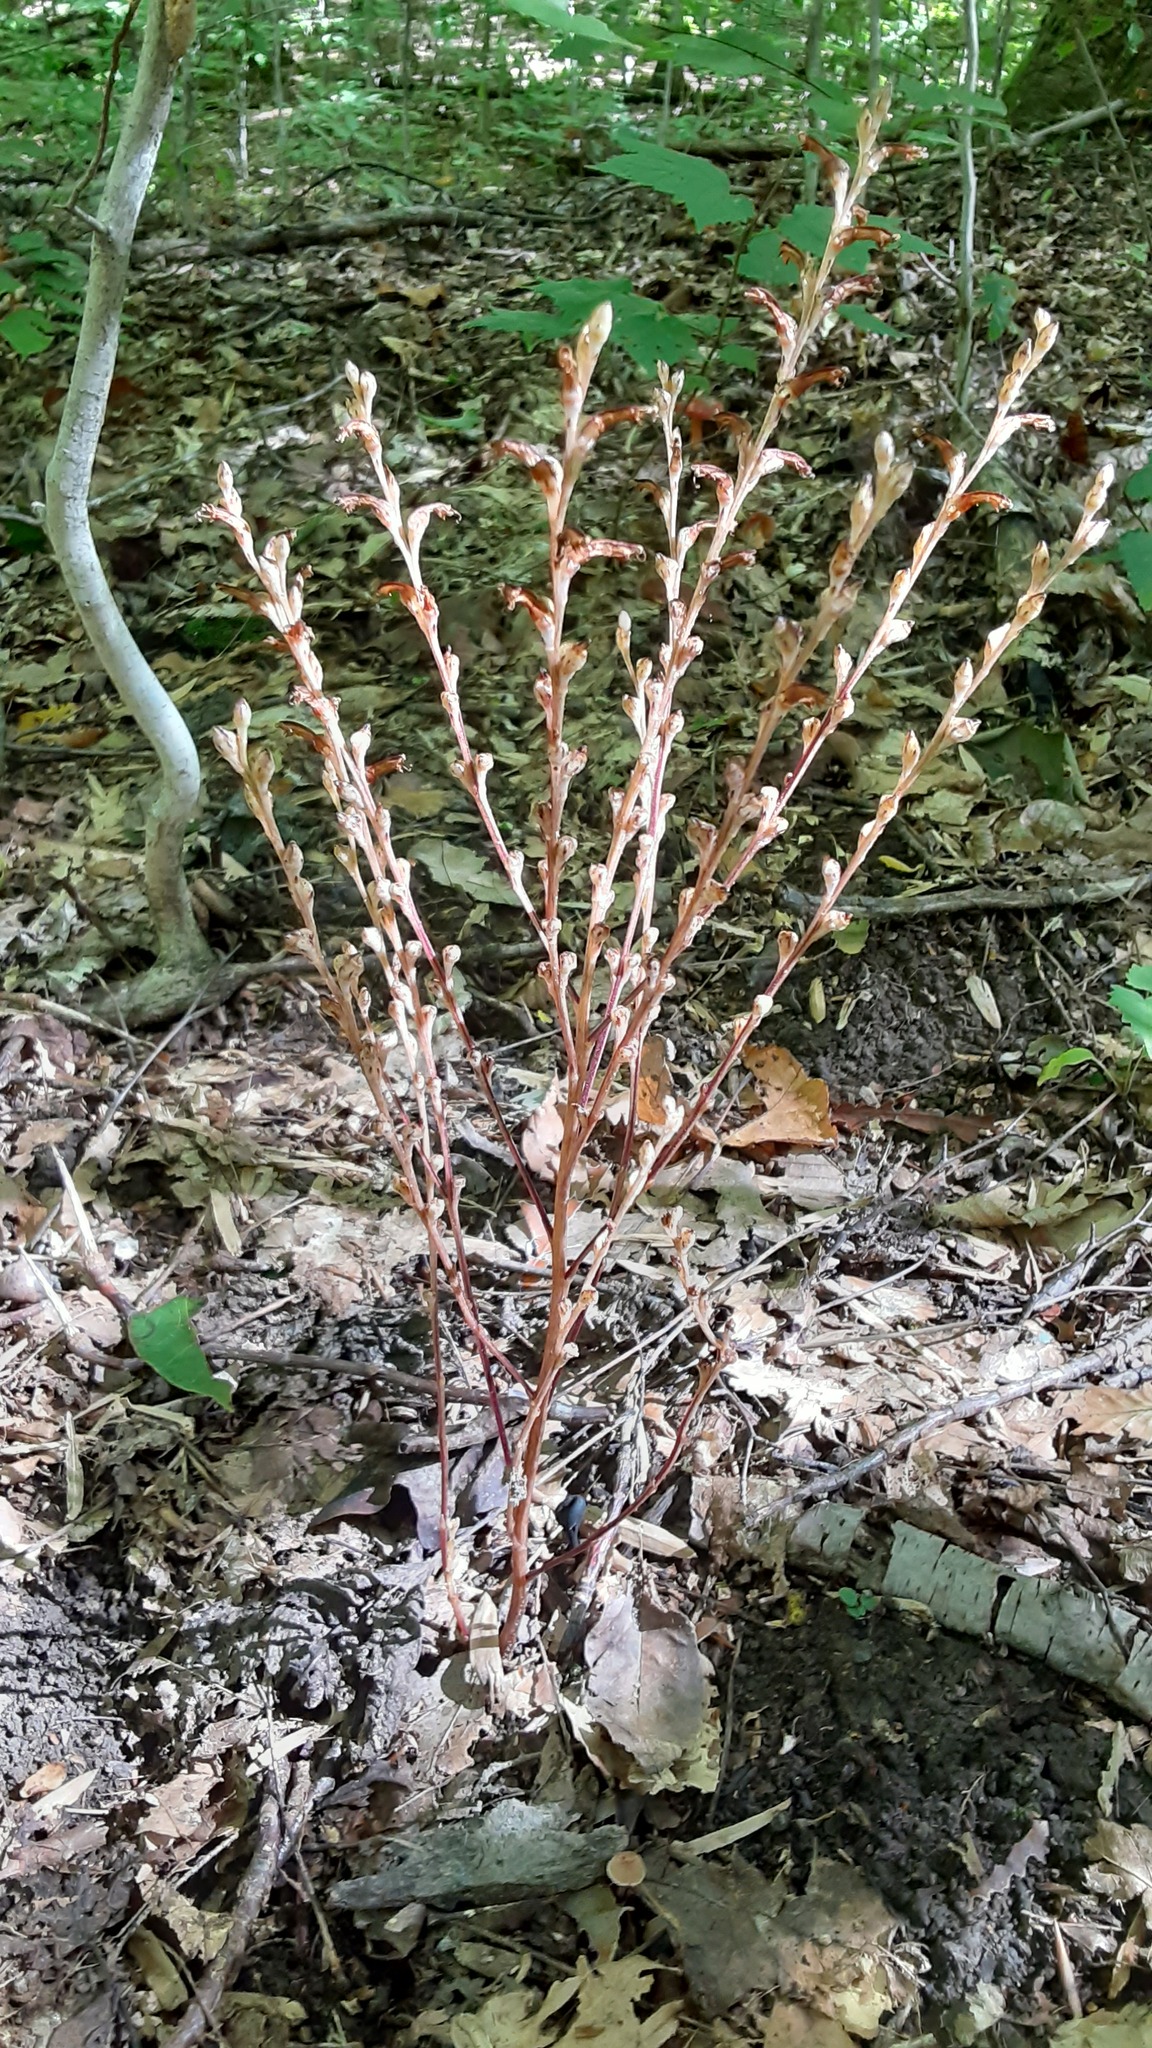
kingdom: Plantae
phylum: Tracheophyta
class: Magnoliopsida
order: Lamiales
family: Orobanchaceae
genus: Epifagus
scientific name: Epifagus virginiana
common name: Beechdrops
